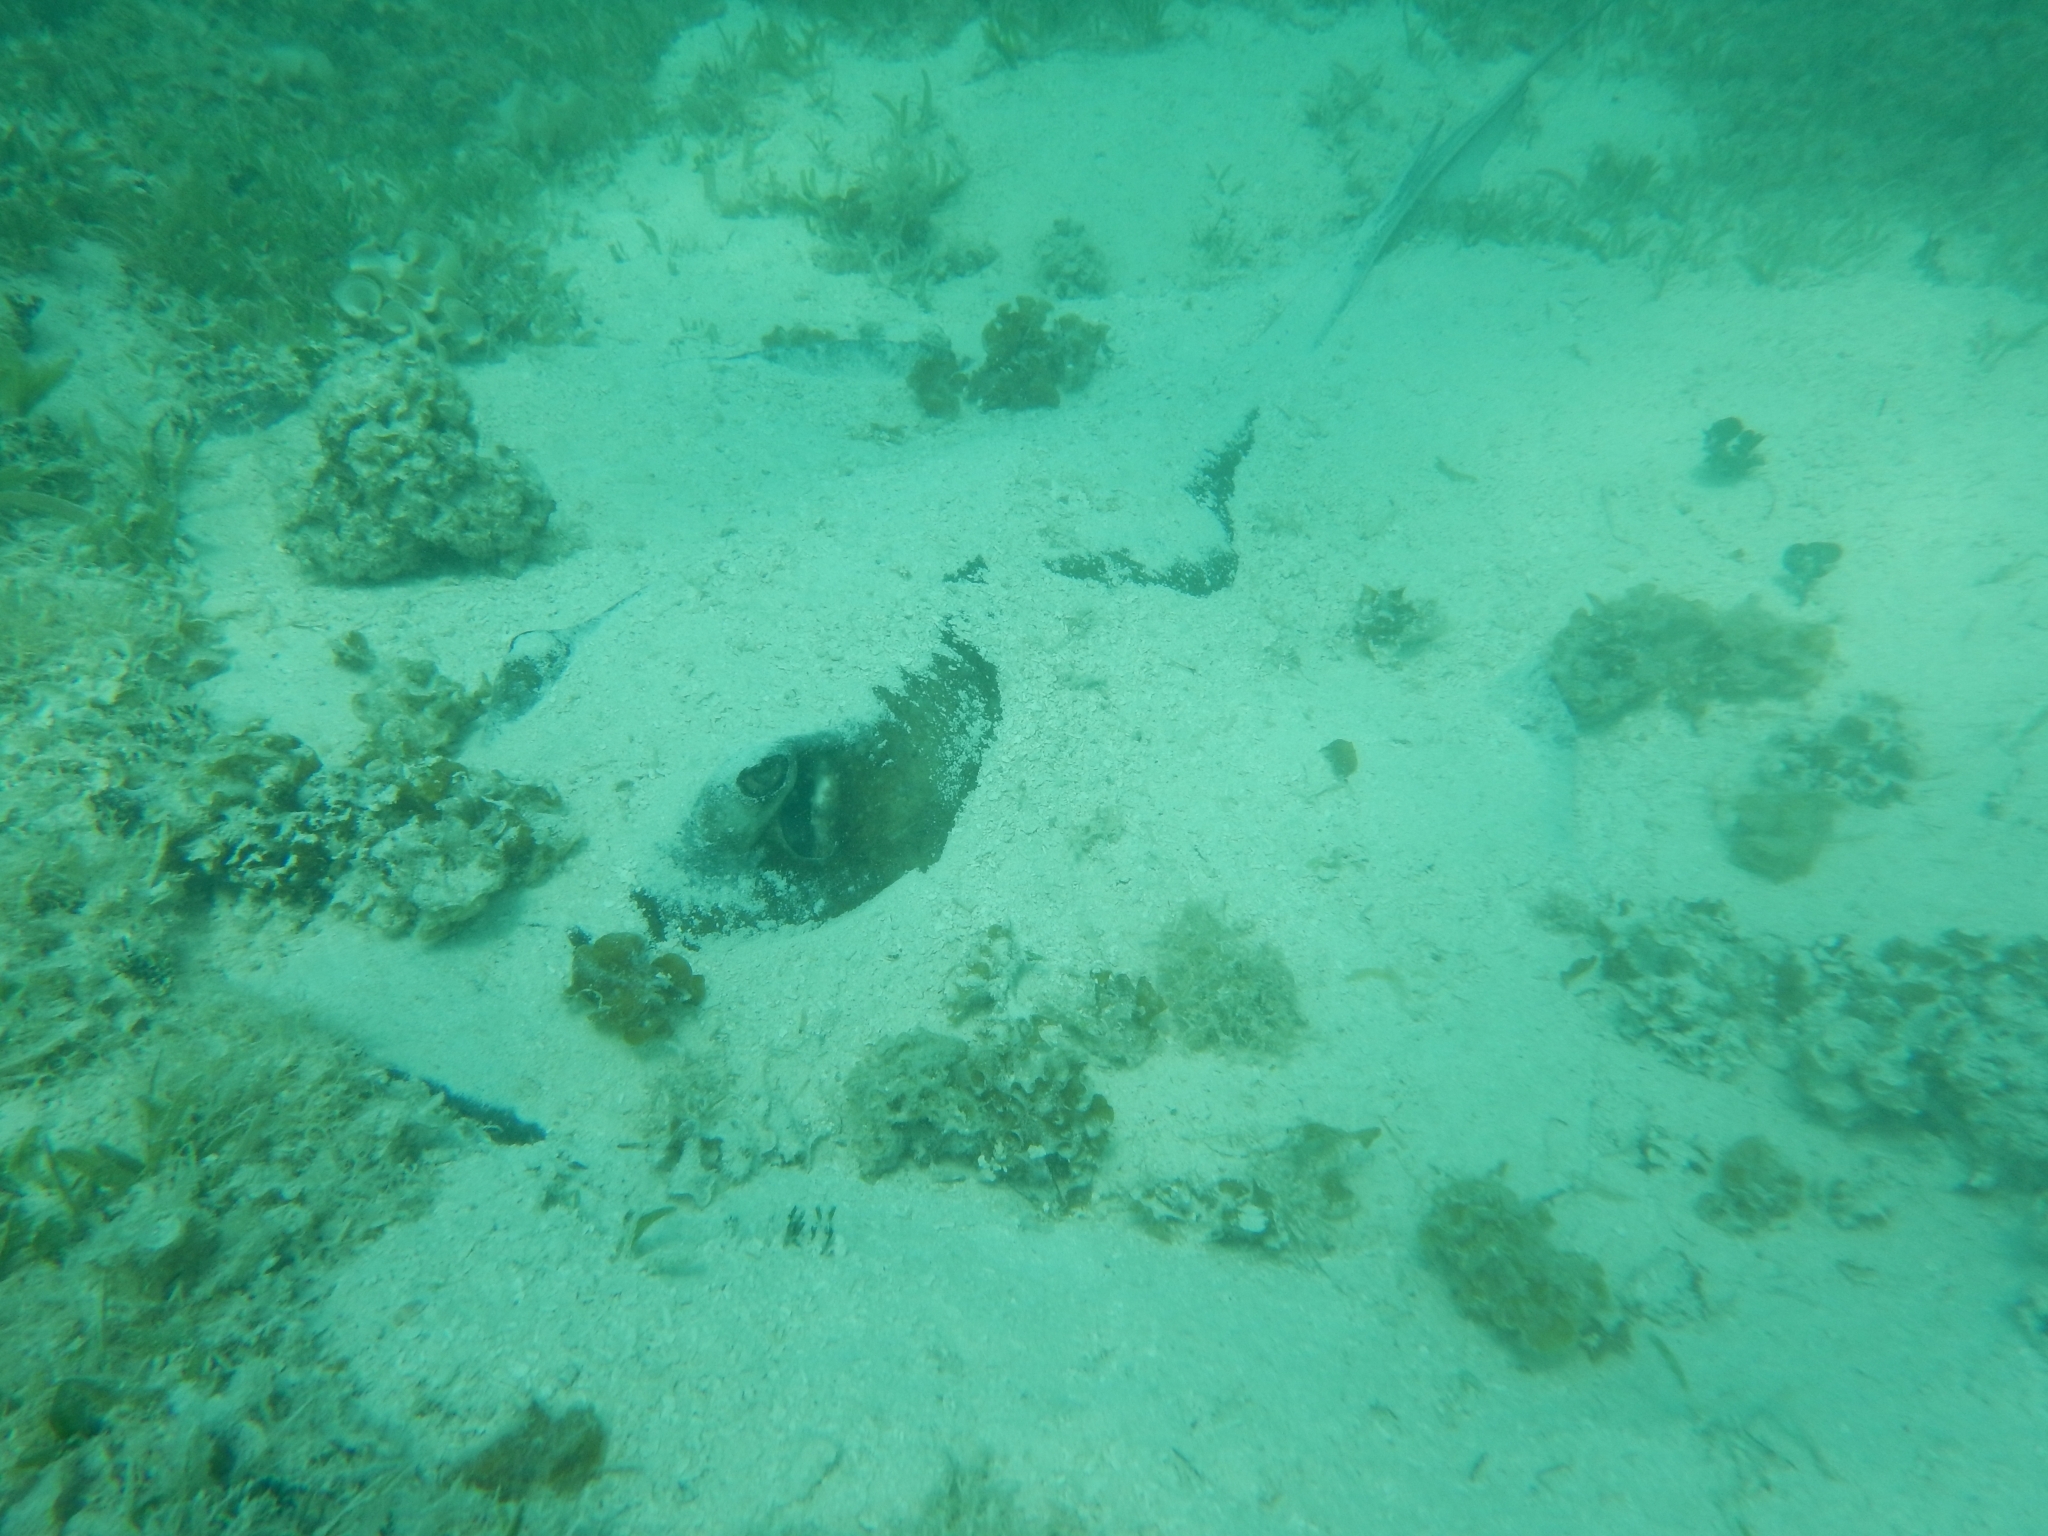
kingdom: Animalia
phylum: Chordata
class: Elasmobranchii
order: Myliobatiformes
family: Dasyatidae
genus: Hypanus
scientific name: Hypanus americanus
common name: Southern stingray
